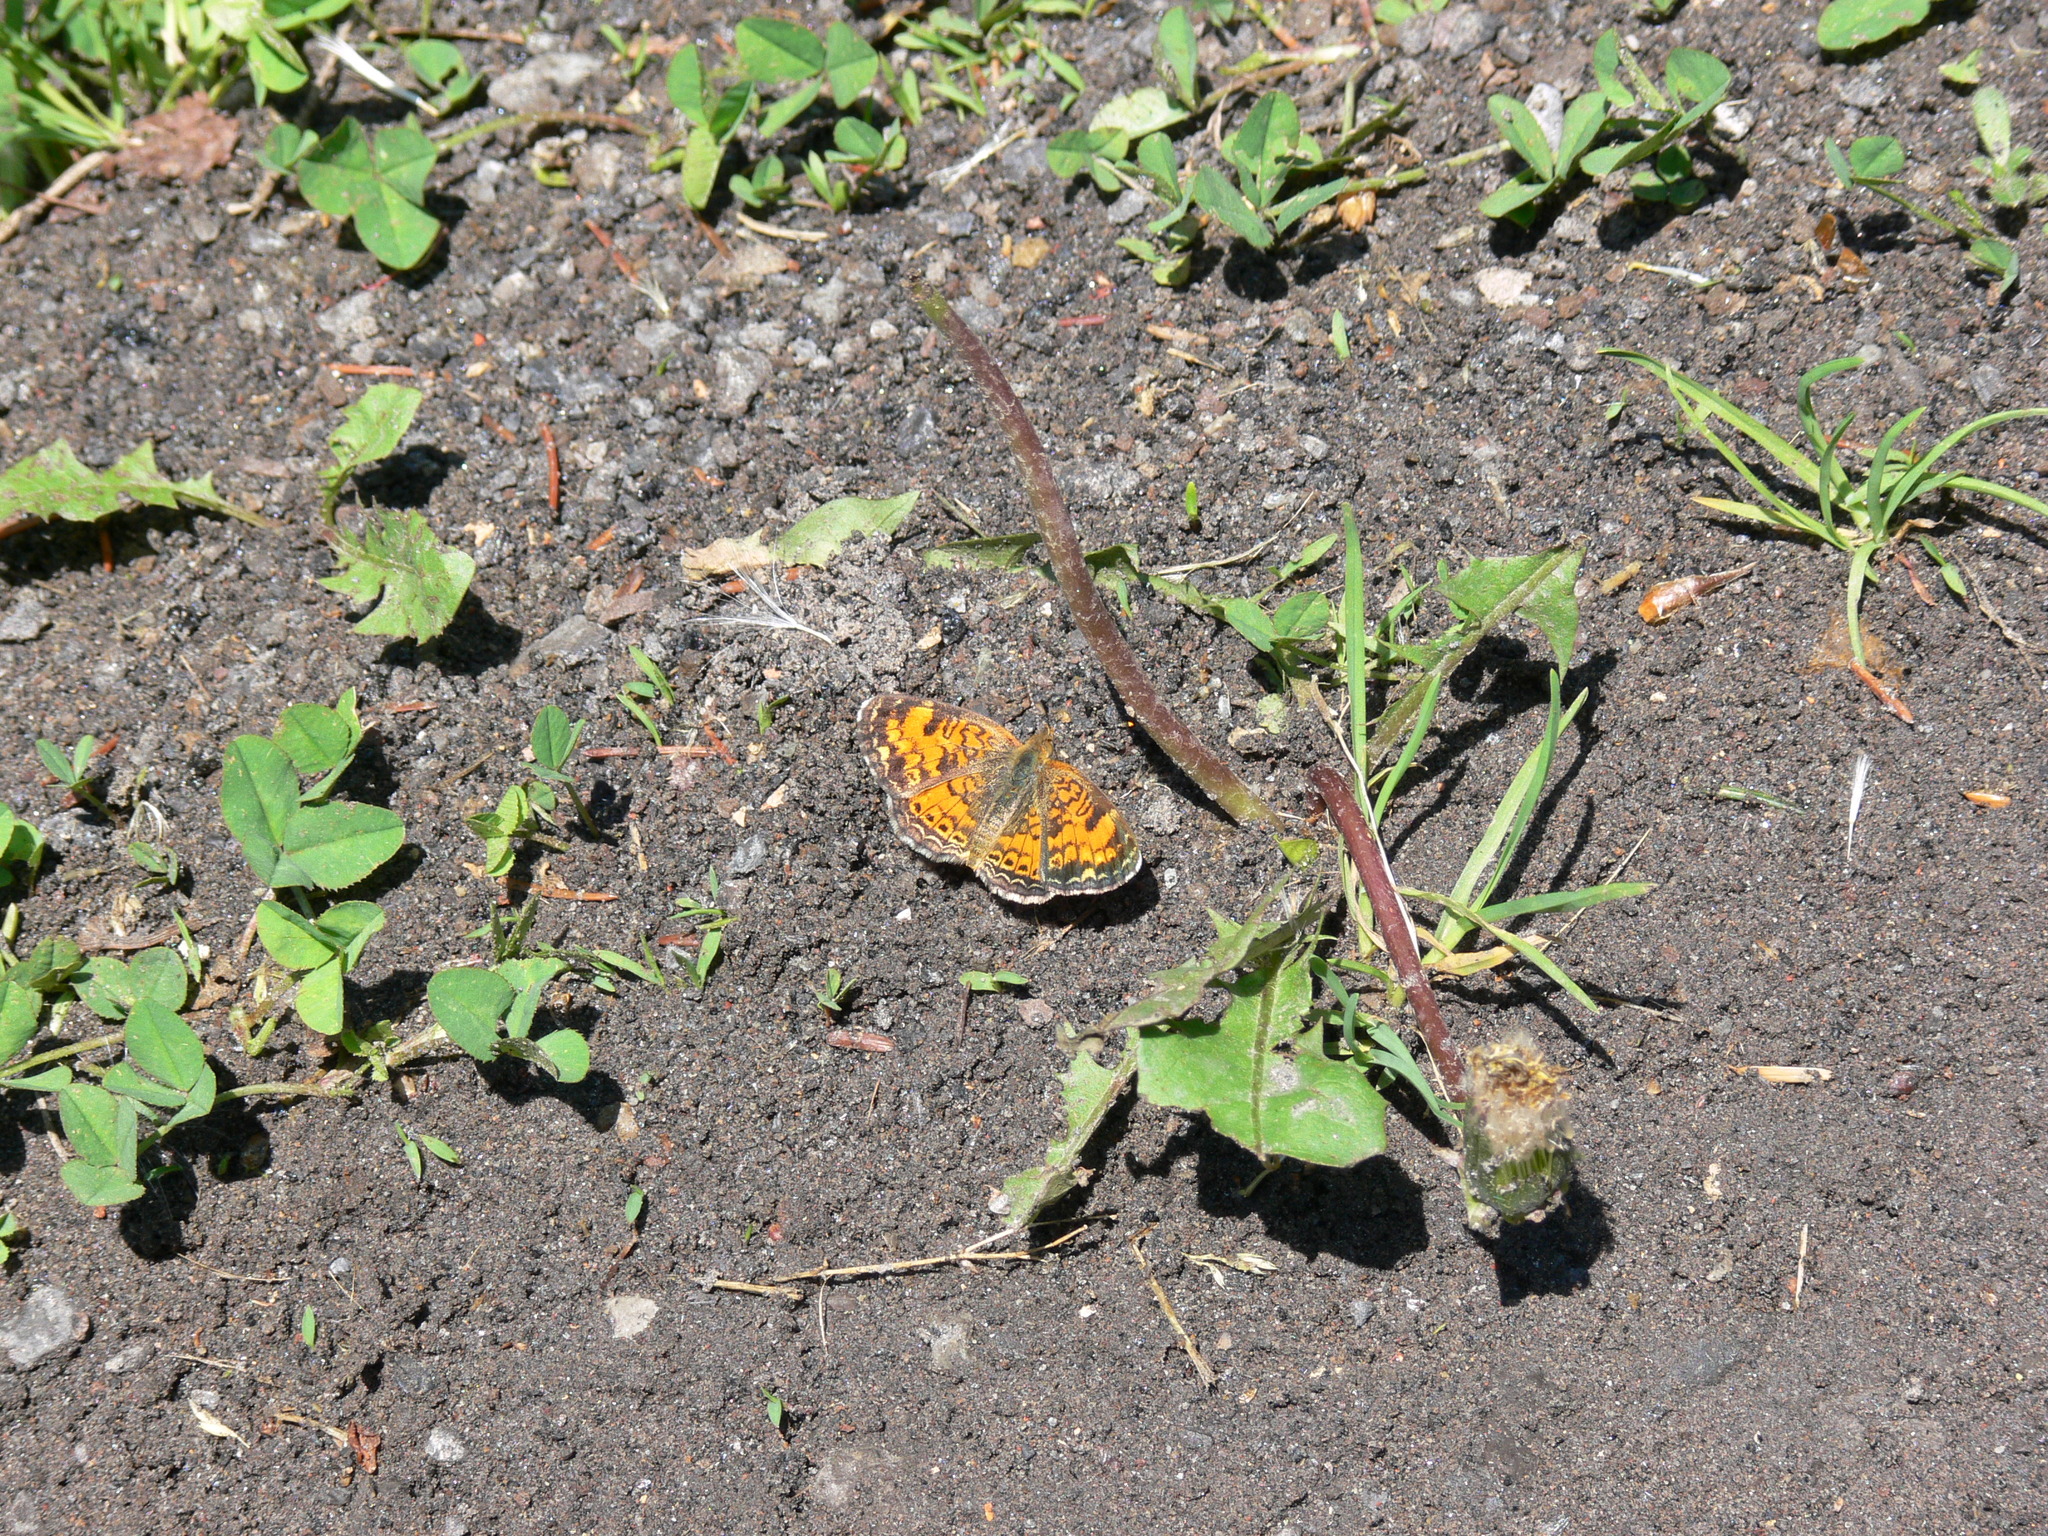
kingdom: Animalia
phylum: Arthropoda
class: Insecta
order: Lepidoptera
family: Nymphalidae
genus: Phyciodes
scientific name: Phyciodes tharos
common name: Pearl crescent
